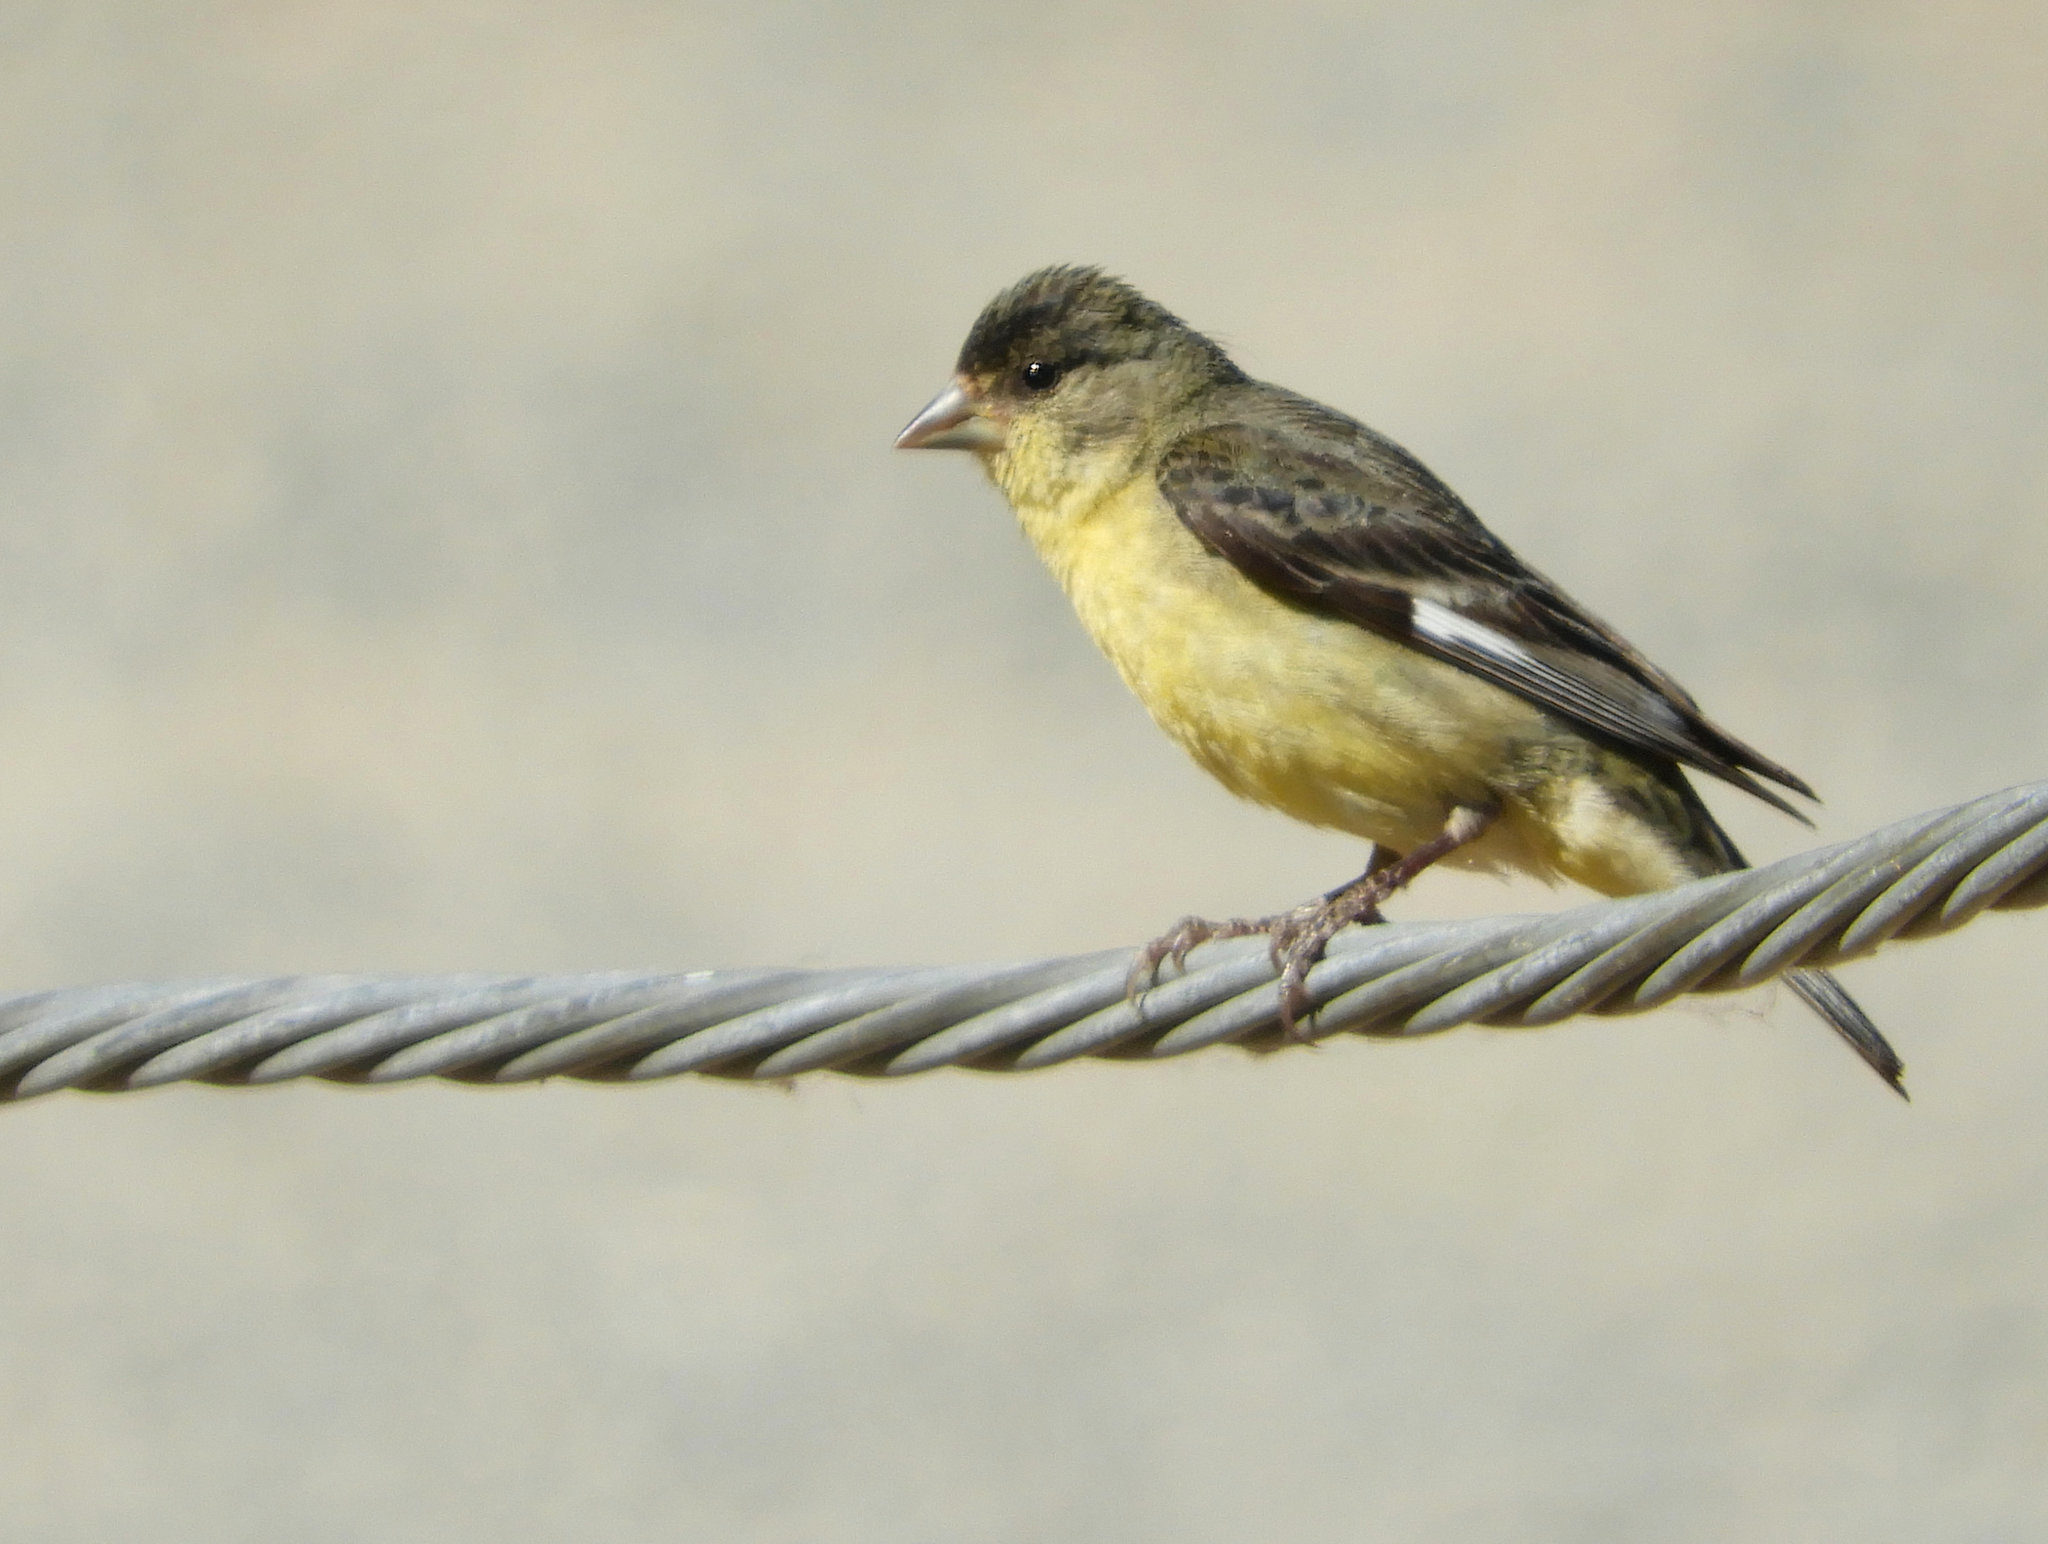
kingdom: Animalia
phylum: Chordata
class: Aves
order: Passeriformes
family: Fringillidae
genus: Spinus
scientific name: Spinus psaltria
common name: Lesser goldfinch
